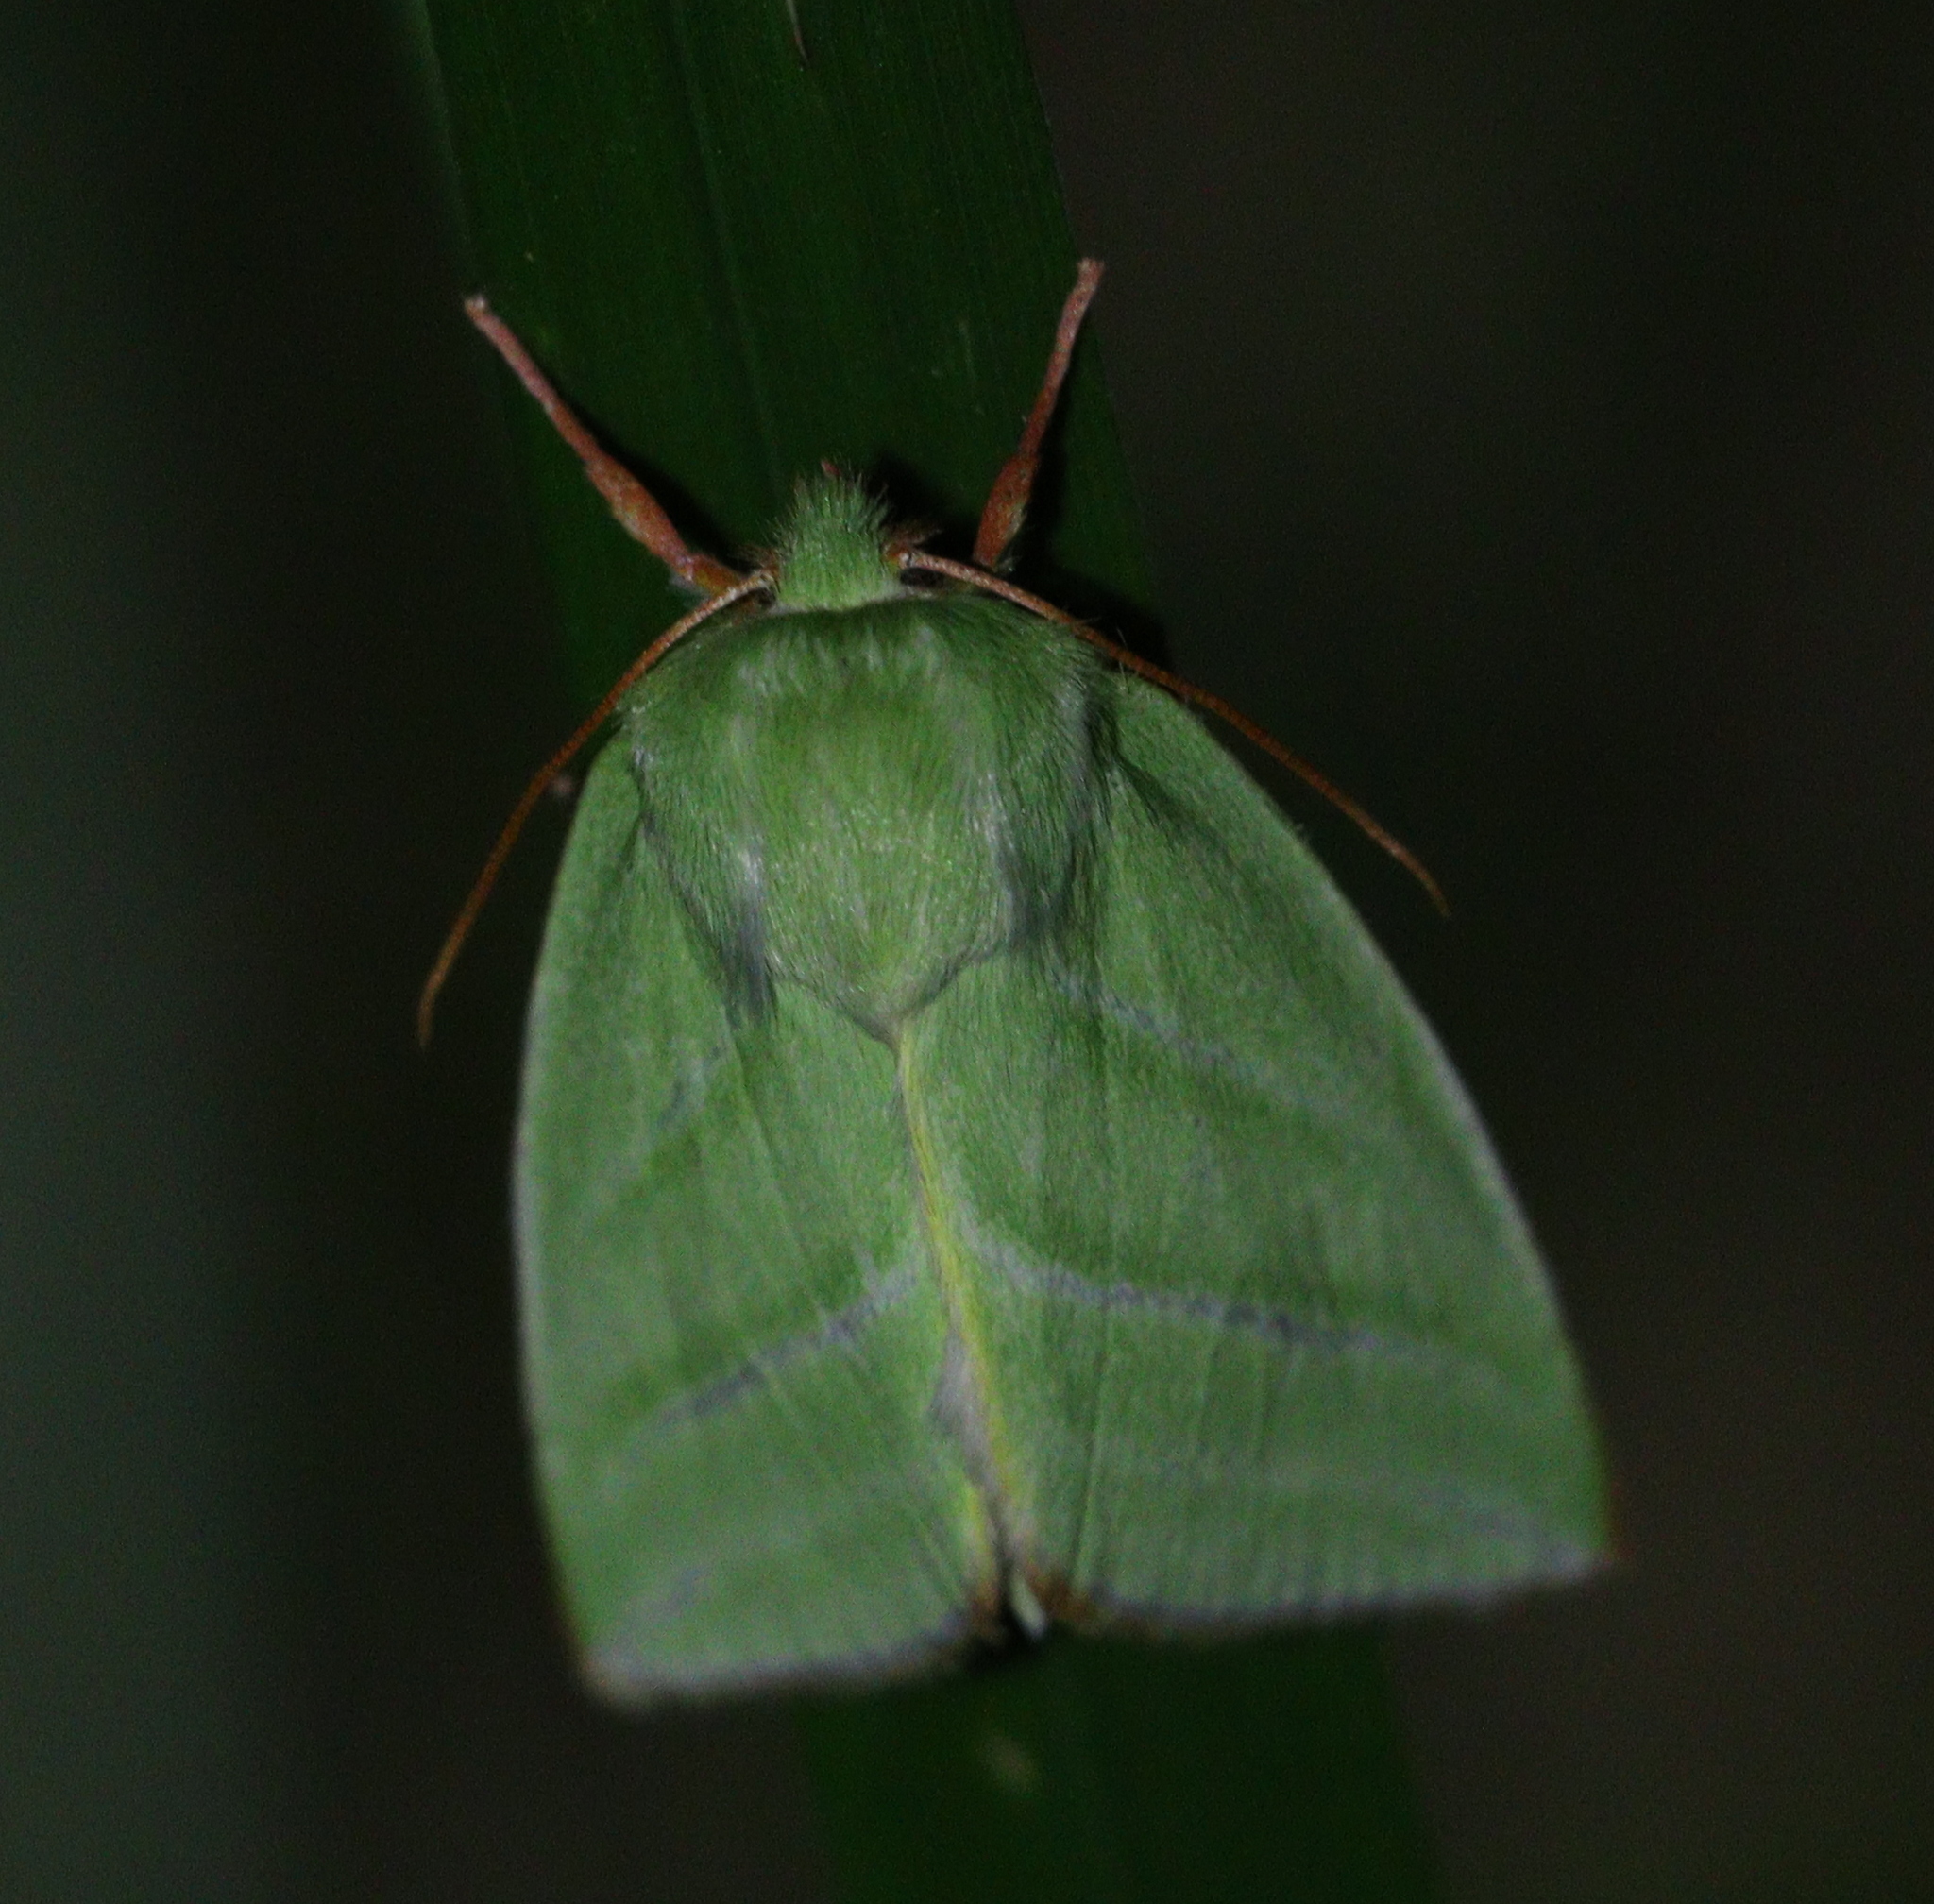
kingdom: Animalia
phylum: Arthropoda
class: Insecta
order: Lepidoptera
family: Nolidae
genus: Pseudoips
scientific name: Pseudoips prasinana
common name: Green silver-lines
